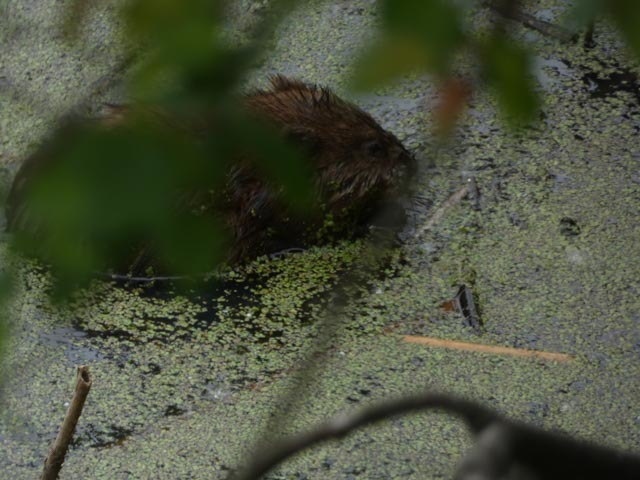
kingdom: Animalia
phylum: Chordata
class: Mammalia
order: Rodentia
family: Cricetidae
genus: Ondatra
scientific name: Ondatra zibethicus
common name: Muskrat
